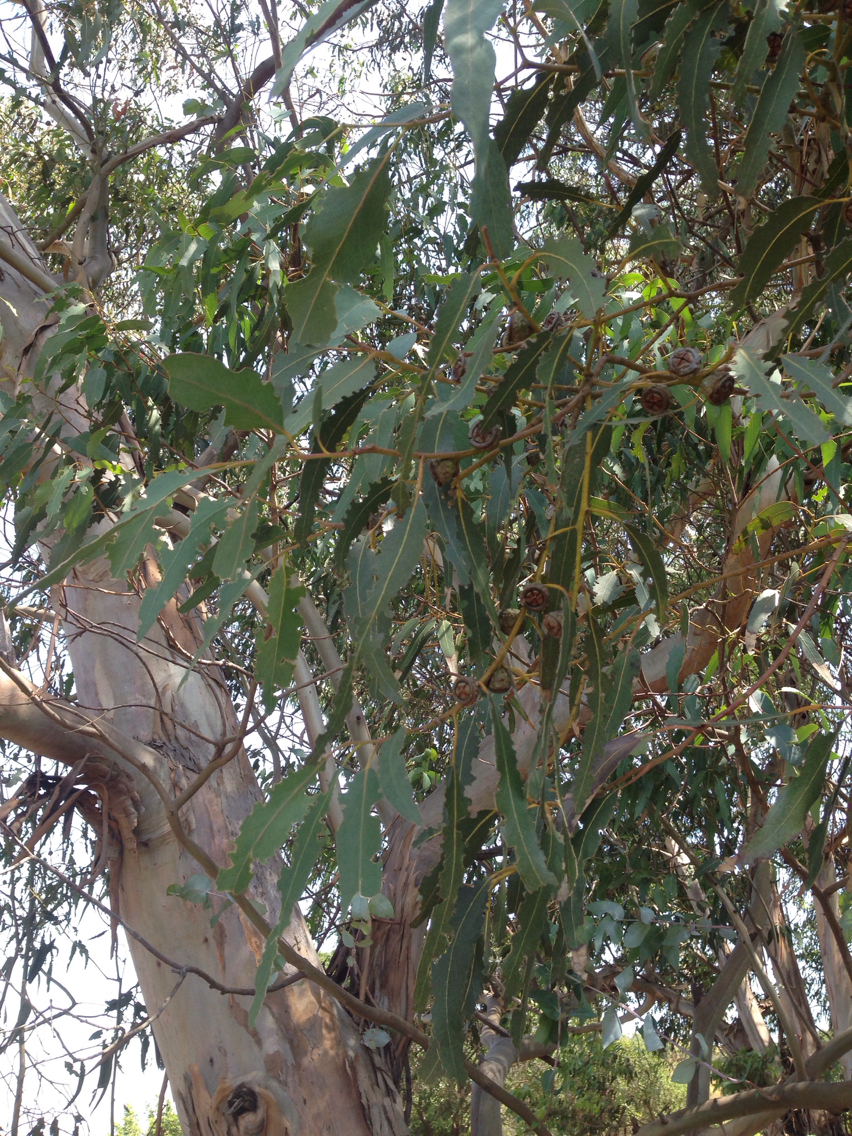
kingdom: Plantae
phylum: Tracheophyta
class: Magnoliopsida
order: Myrtales
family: Myrtaceae
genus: Eucalyptus
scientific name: Eucalyptus globulus
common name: Southern blue-gum
